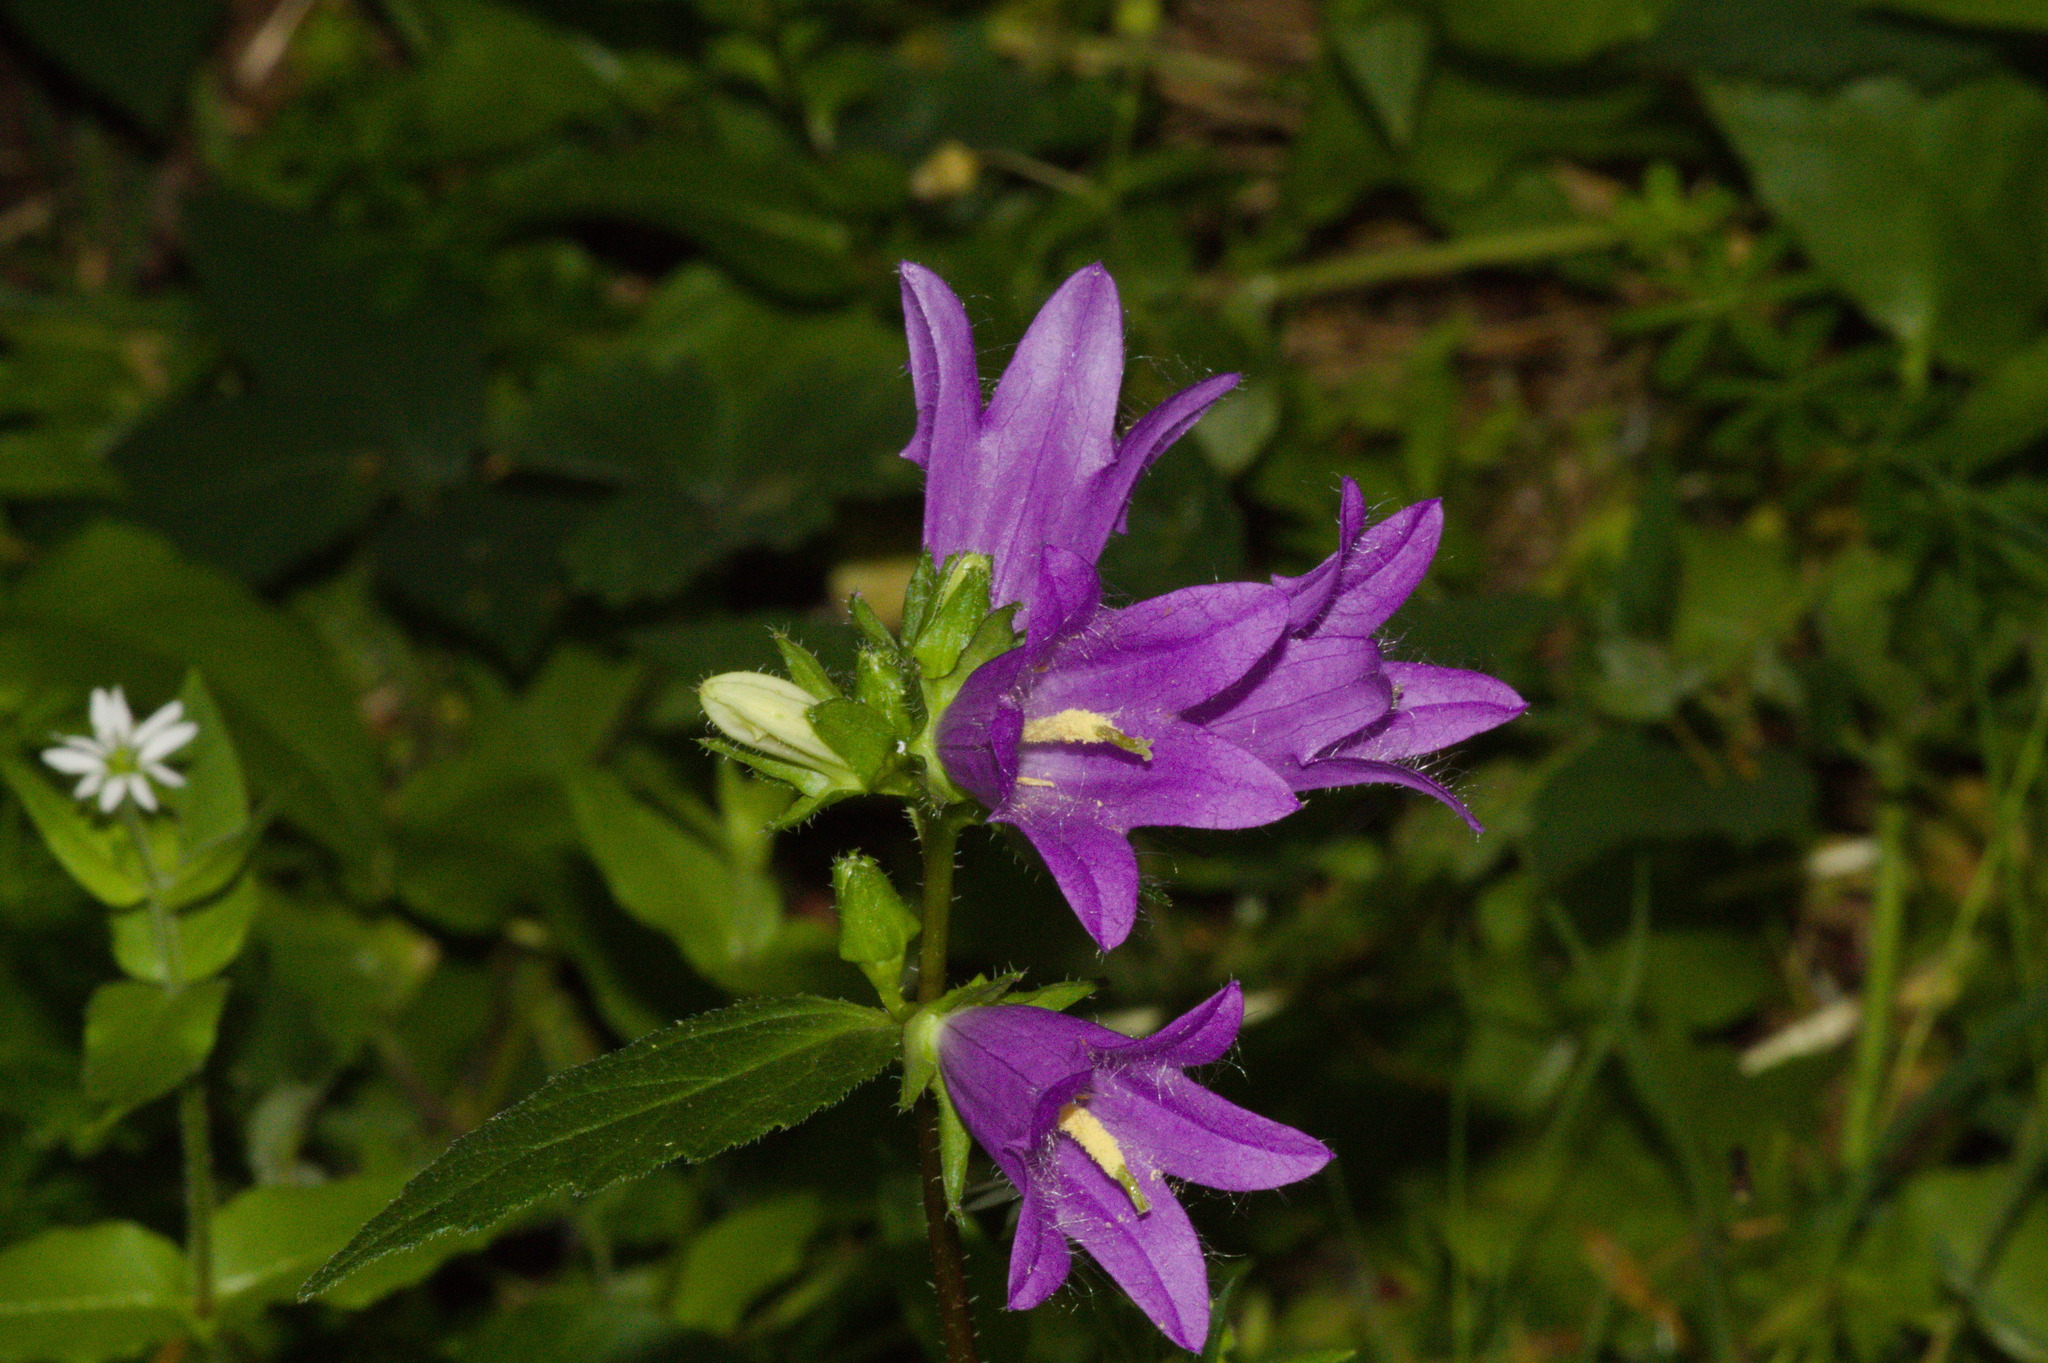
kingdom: Plantae
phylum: Tracheophyta
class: Magnoliopsida
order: Asterales
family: Campanulaceae
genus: Campanula
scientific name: Campanula trachelium
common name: Nettle-leaved bellflower
